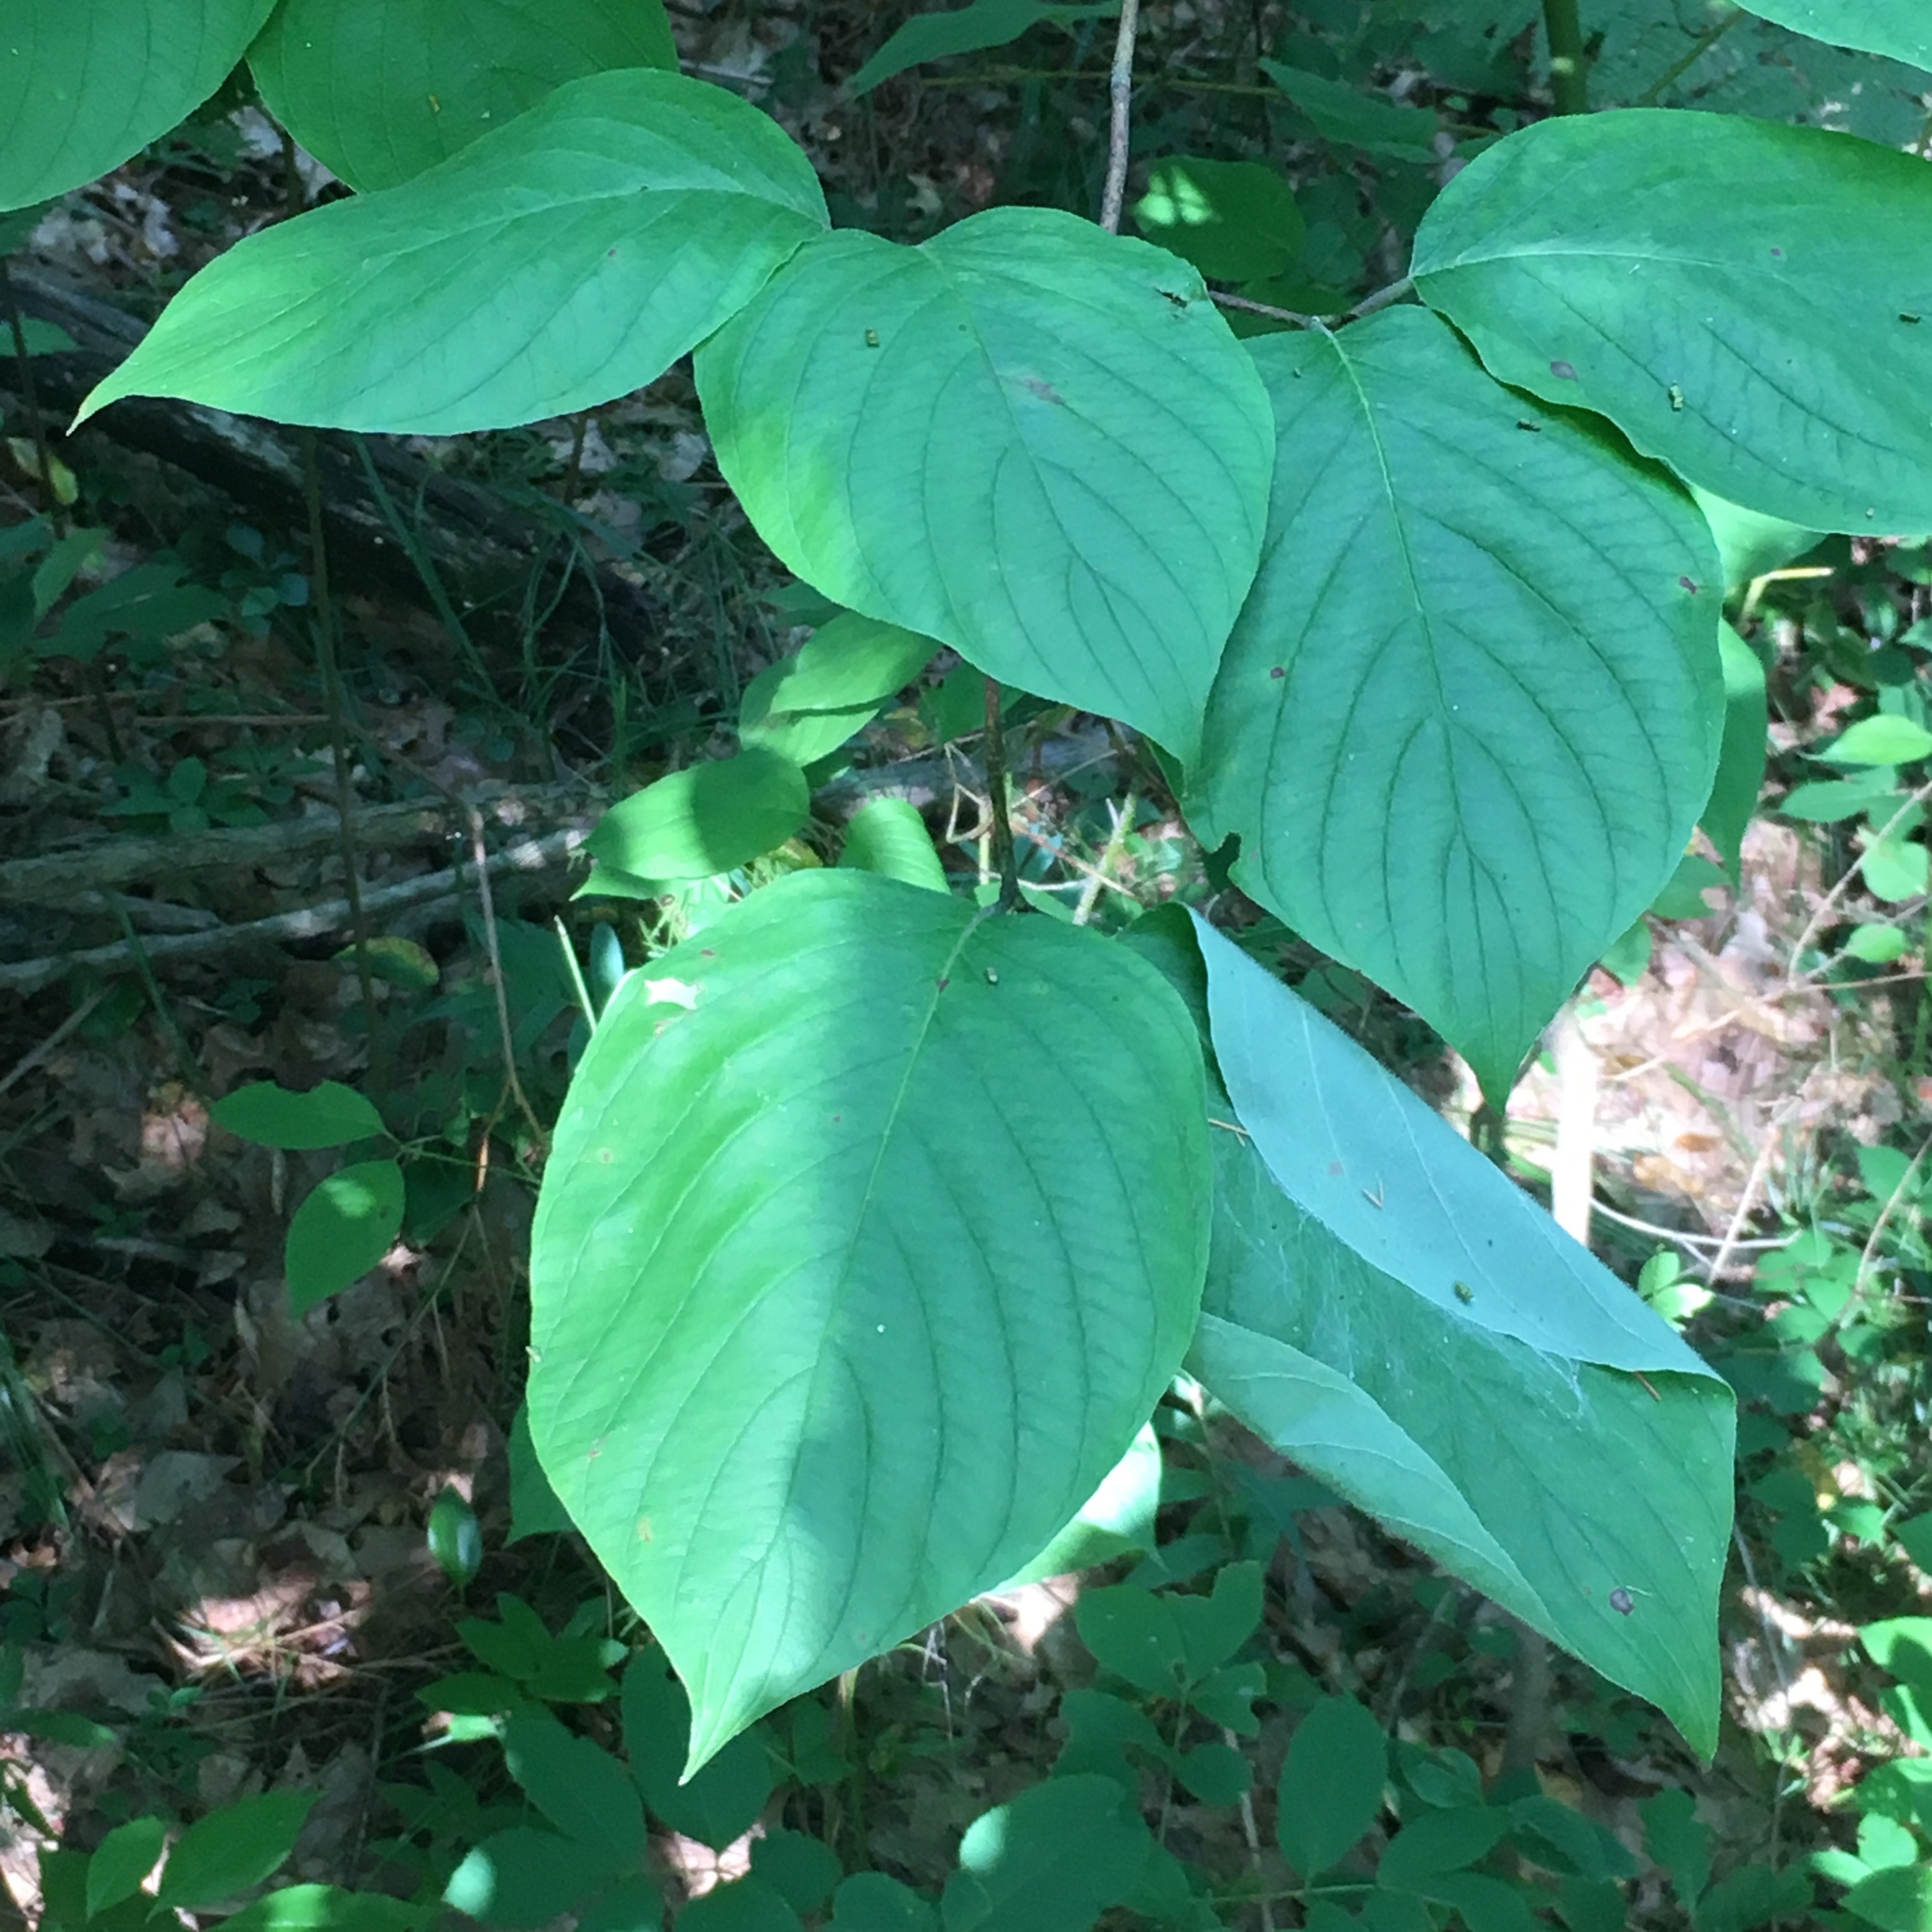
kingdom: Plantae
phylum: Tracheophyta
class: Magnoliopsida
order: Cornales
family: Cornaceae
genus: Cornus
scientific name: Cornus rugosa
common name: Round-leaf dogwood
